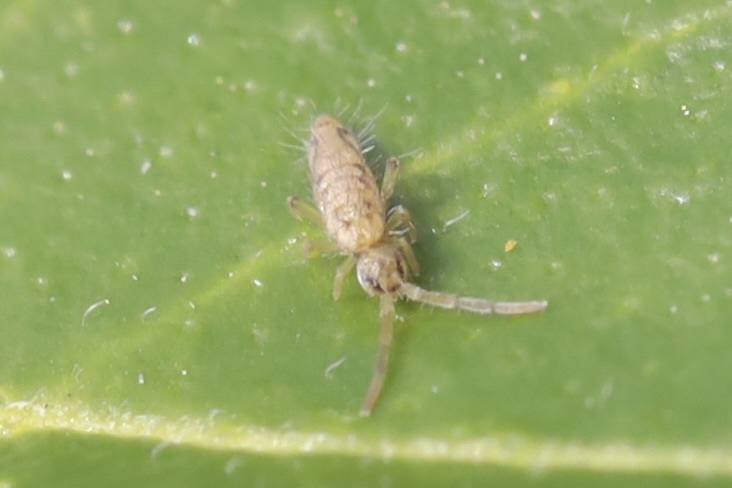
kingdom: Animalia
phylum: Arthropoda
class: Collembola
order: Entomobryomorpha
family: Entomobryidae
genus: Entomobrya
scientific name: Entomobrya katzi
